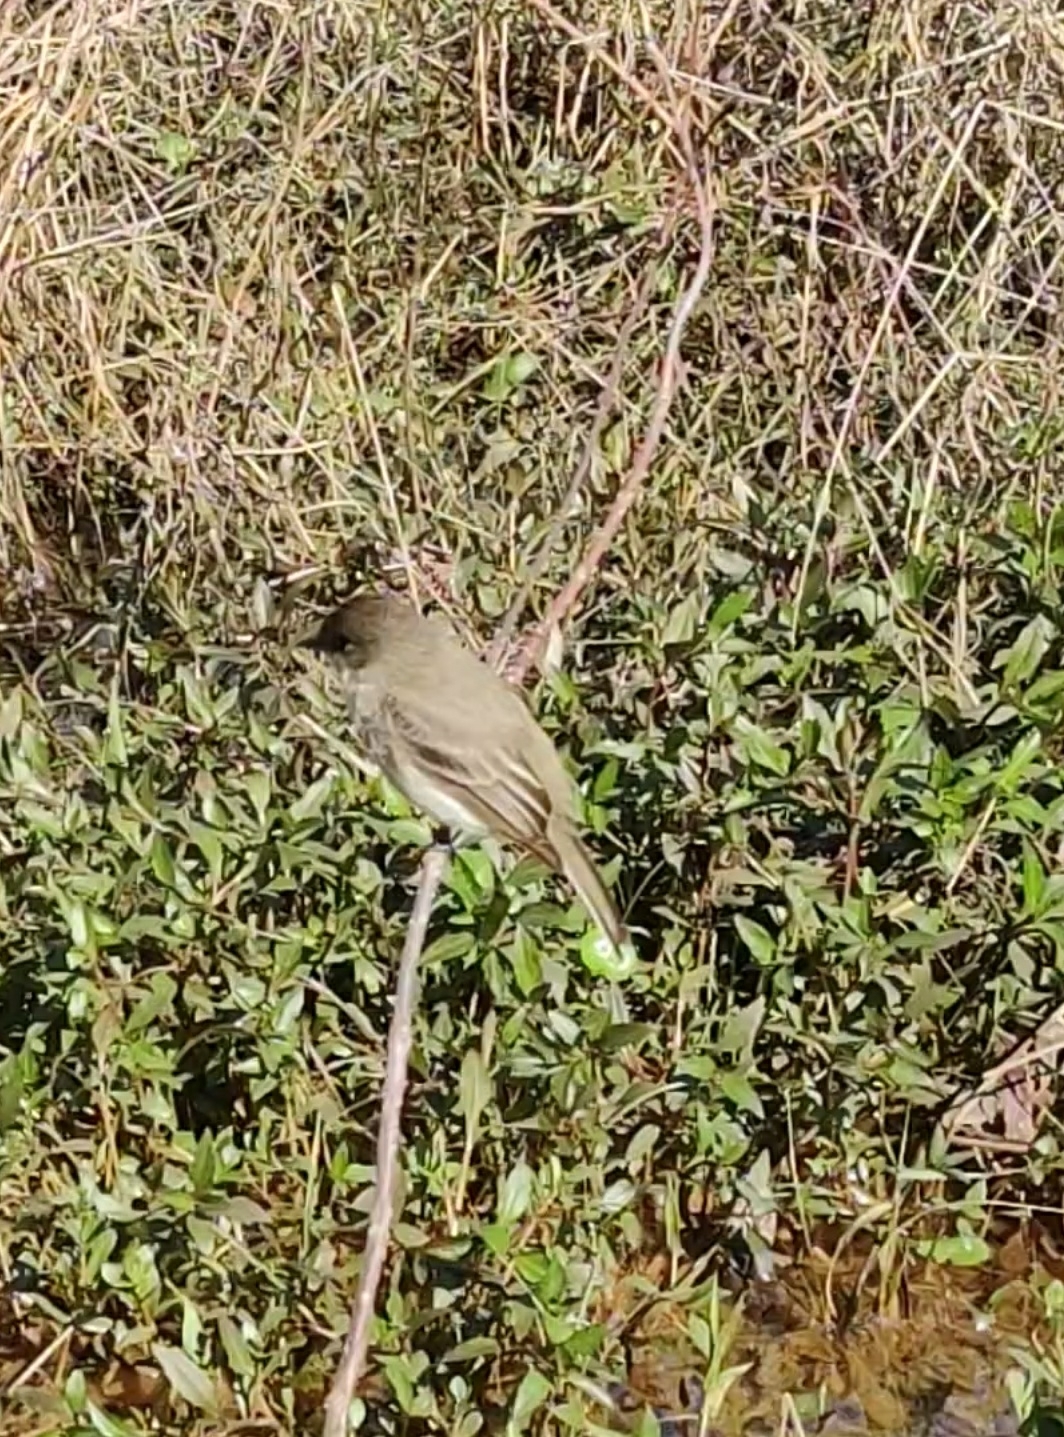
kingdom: Animalia
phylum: Chordata
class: Aves
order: Passeriformes
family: Tyrannidae
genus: Sayornis
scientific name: Sayornis phoebe
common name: Eastern phoebe
